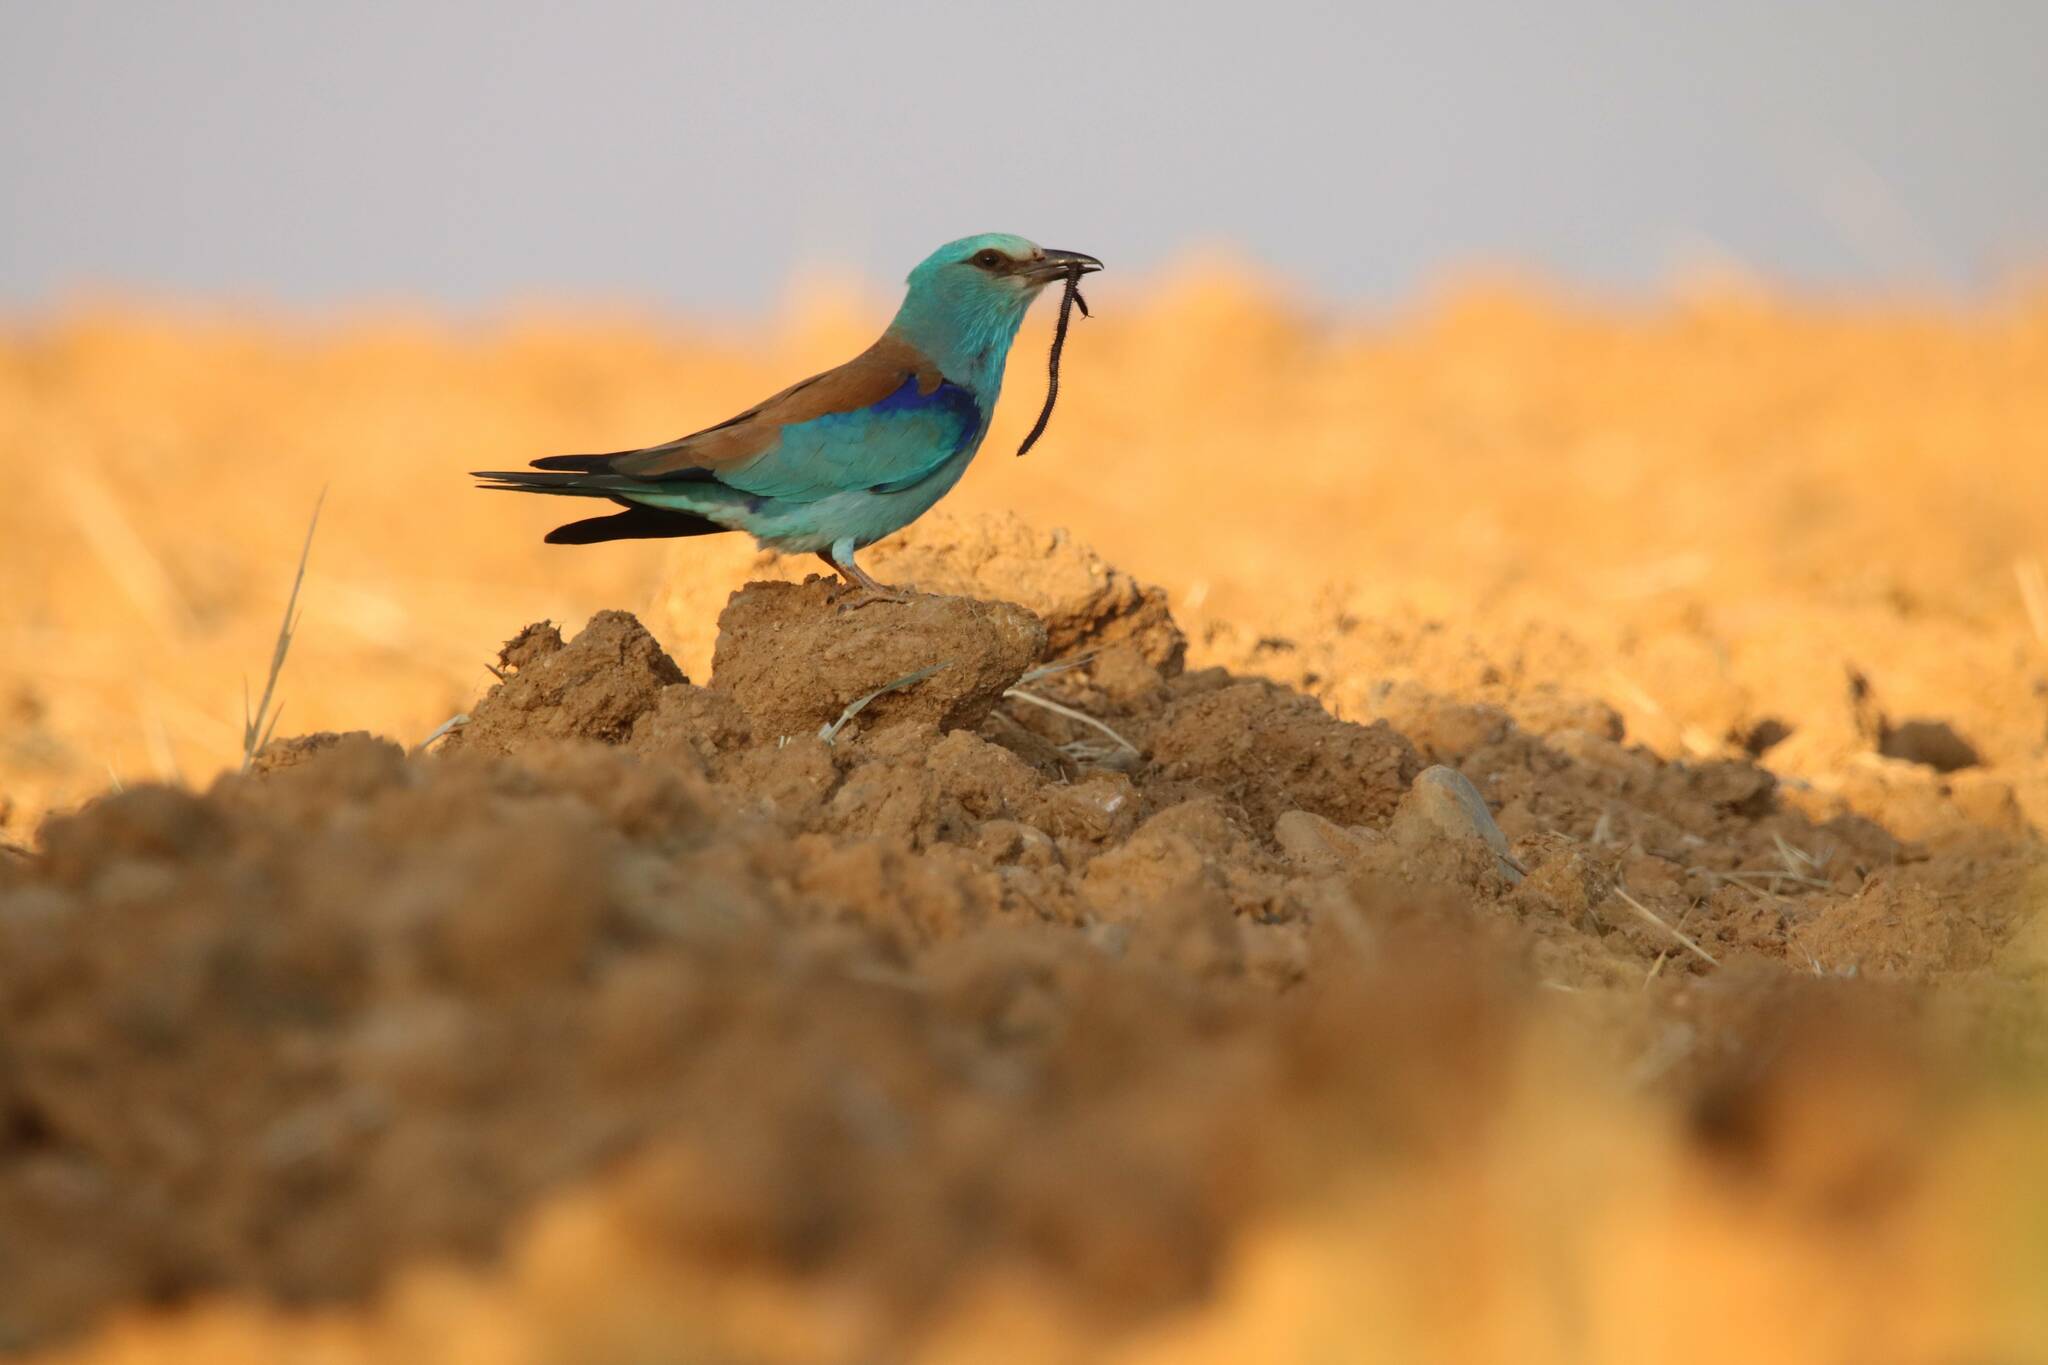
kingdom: Animalia
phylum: Chordata
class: Aves
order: Coraciiformes
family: Coraciidae
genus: Coracias
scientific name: Coracias garrulus
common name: European roller
